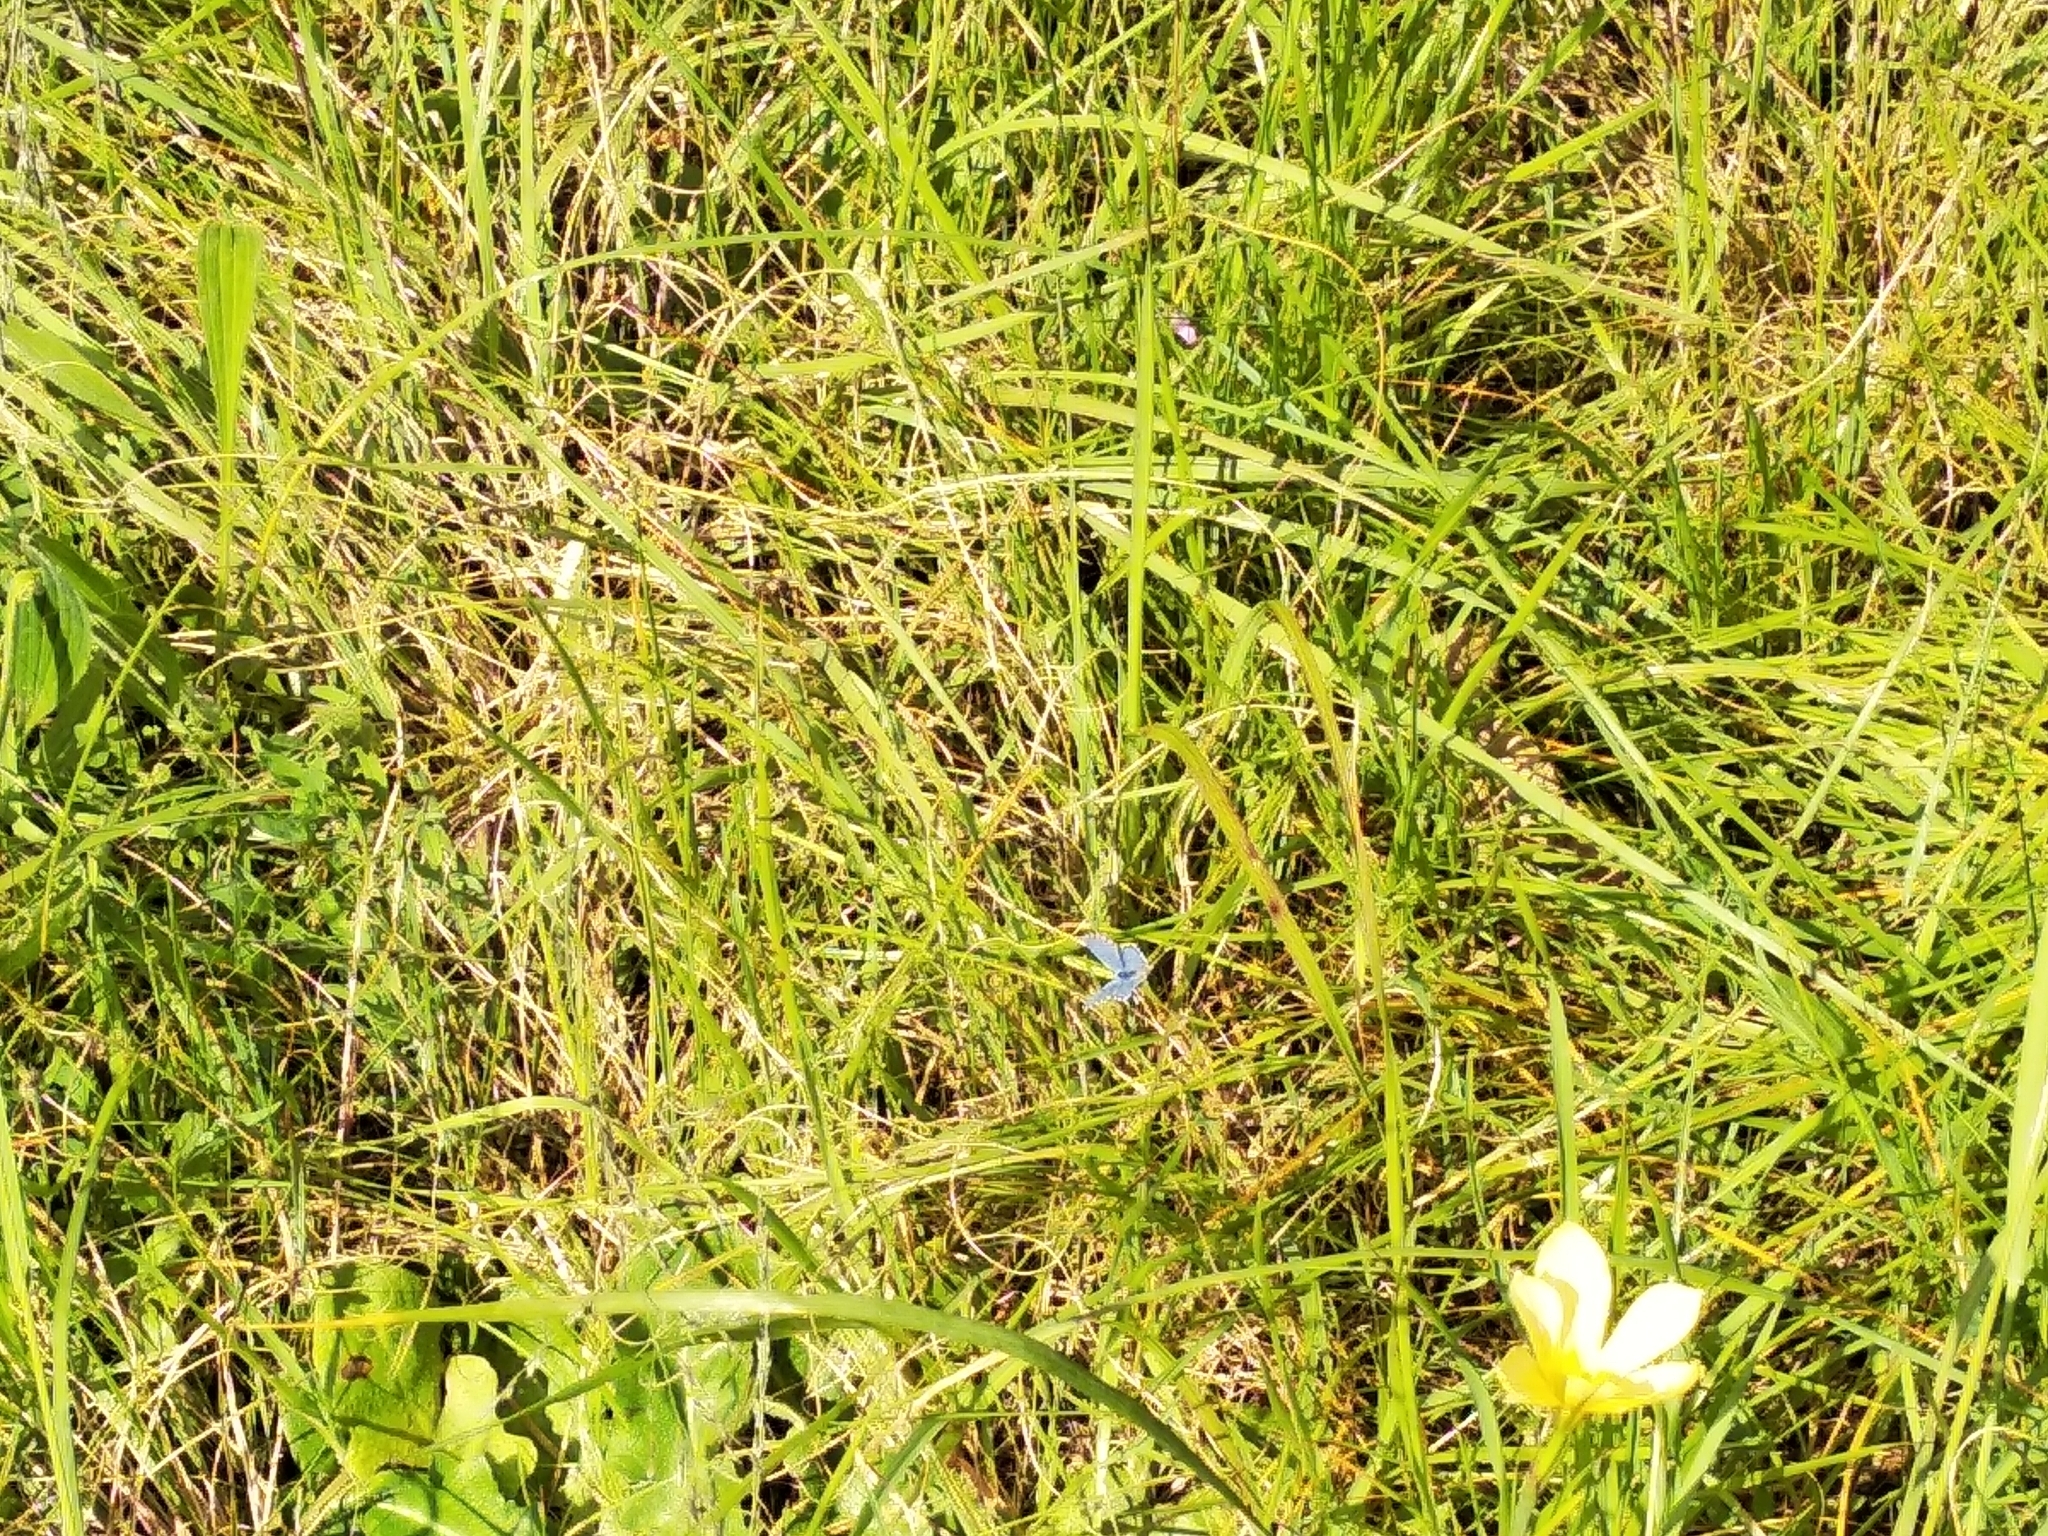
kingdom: Animalia
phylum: Arthropoda
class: Insecta
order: Lepidoptera
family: Lycaenidae
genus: Tarucus
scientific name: Tarucus thespis
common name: Vivid dotted blue
